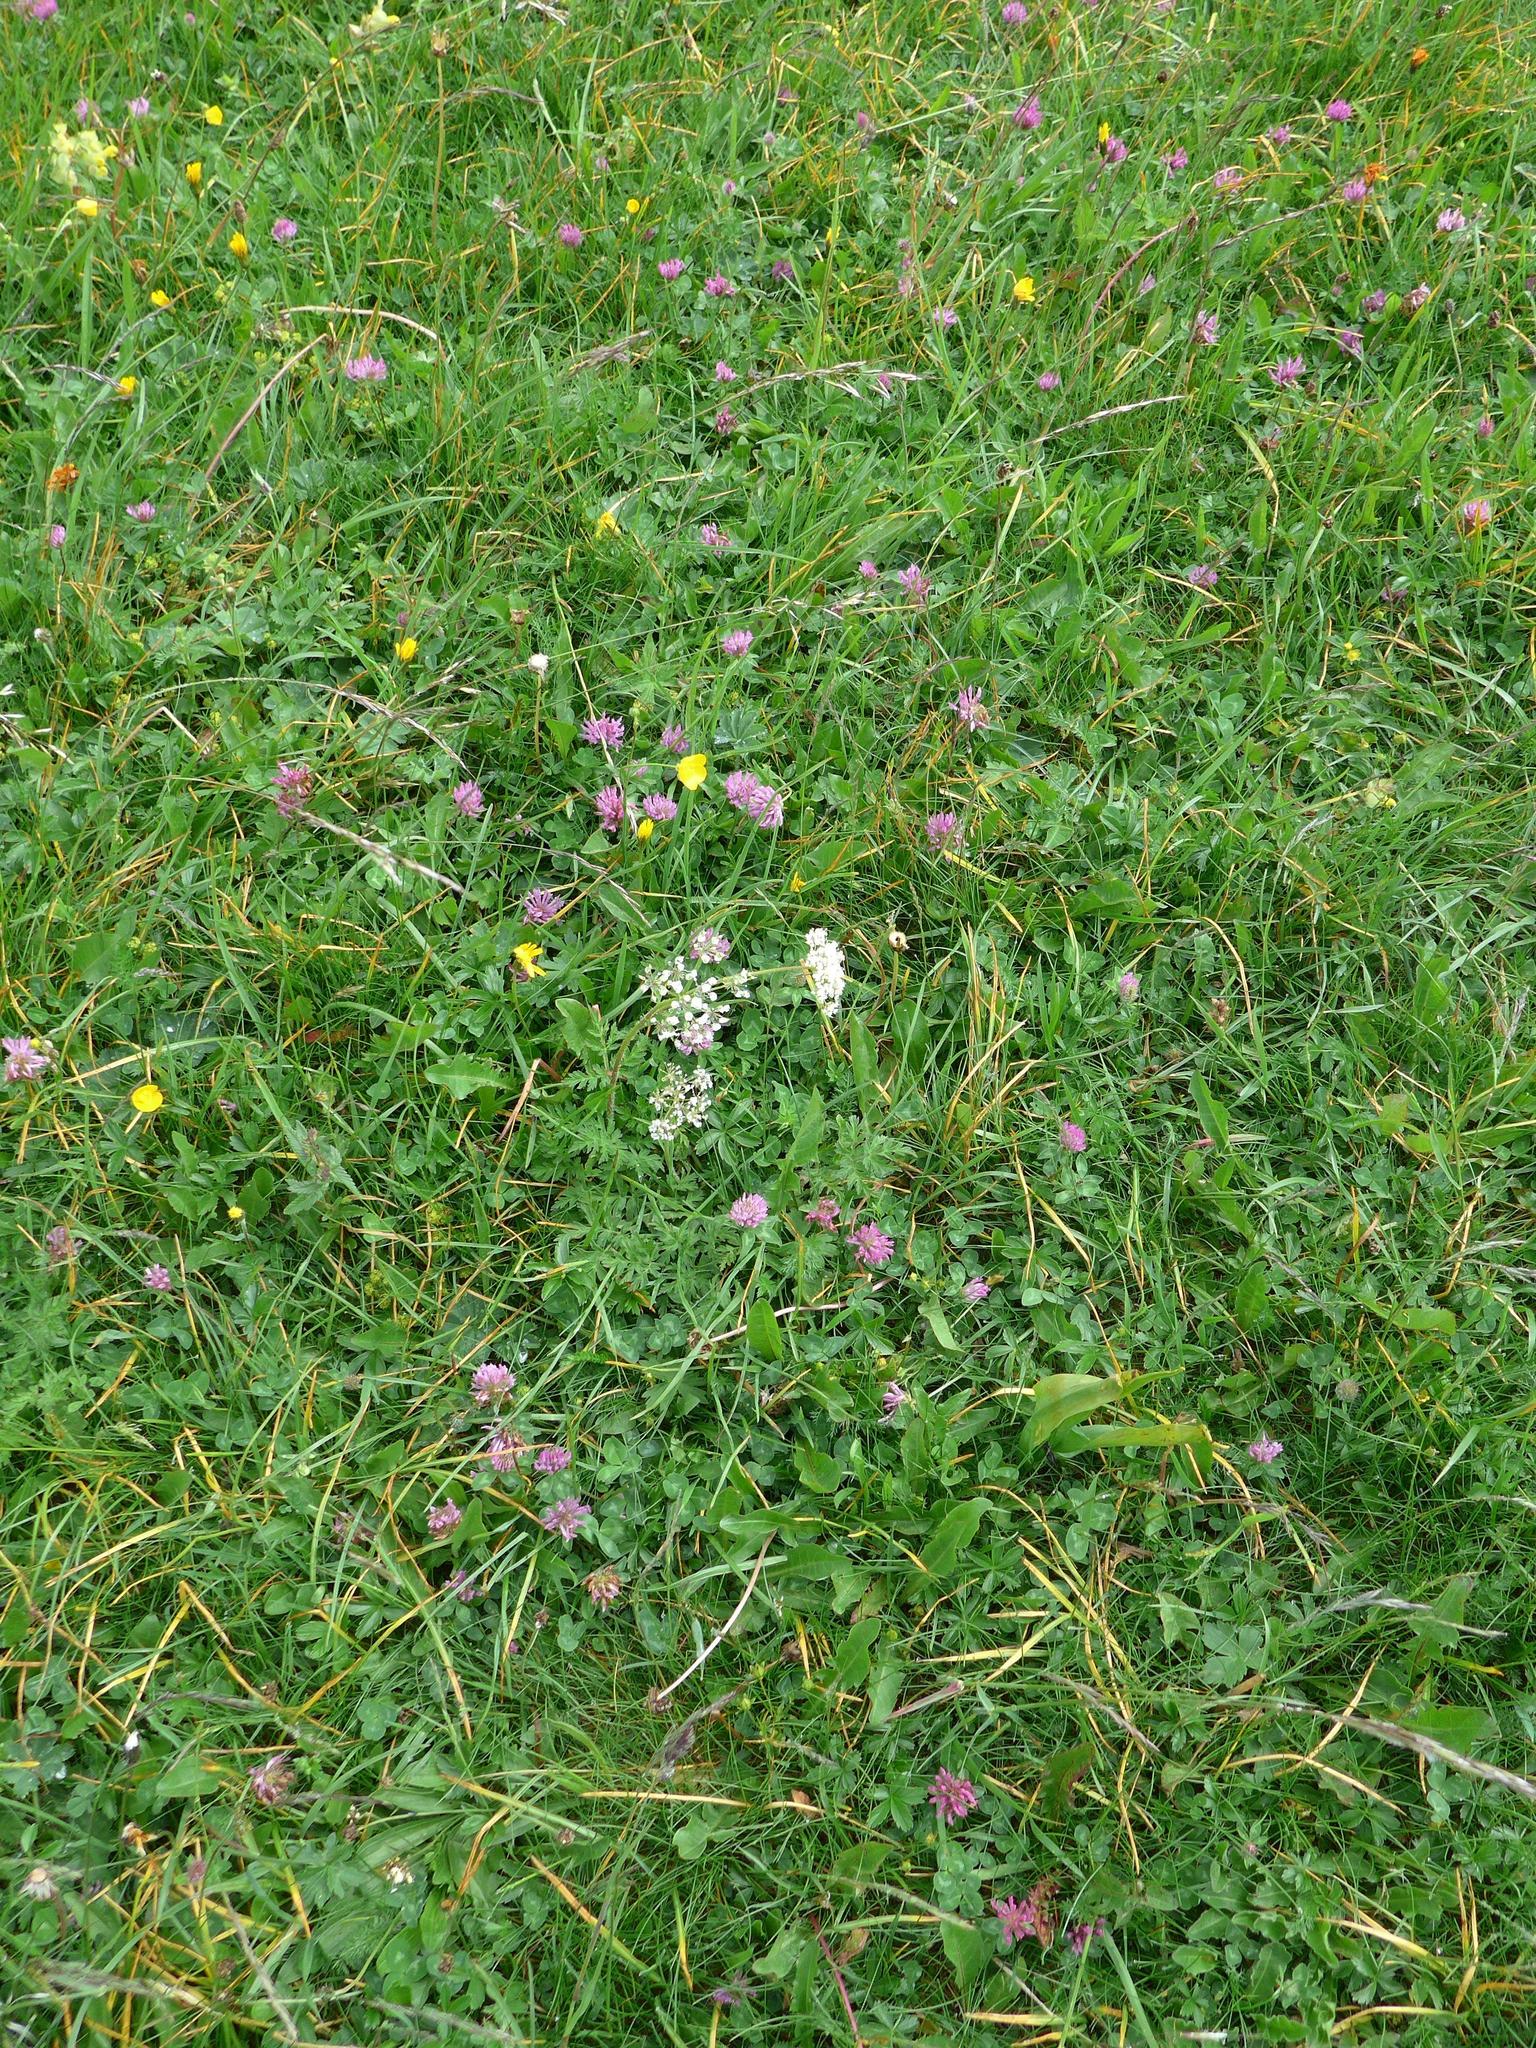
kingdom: Plantae
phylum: Tracheophyta
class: Magnoliopsida
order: Fabales
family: Fabaceae
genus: Trifolium
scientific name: Trifolium pratense
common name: Red clover
